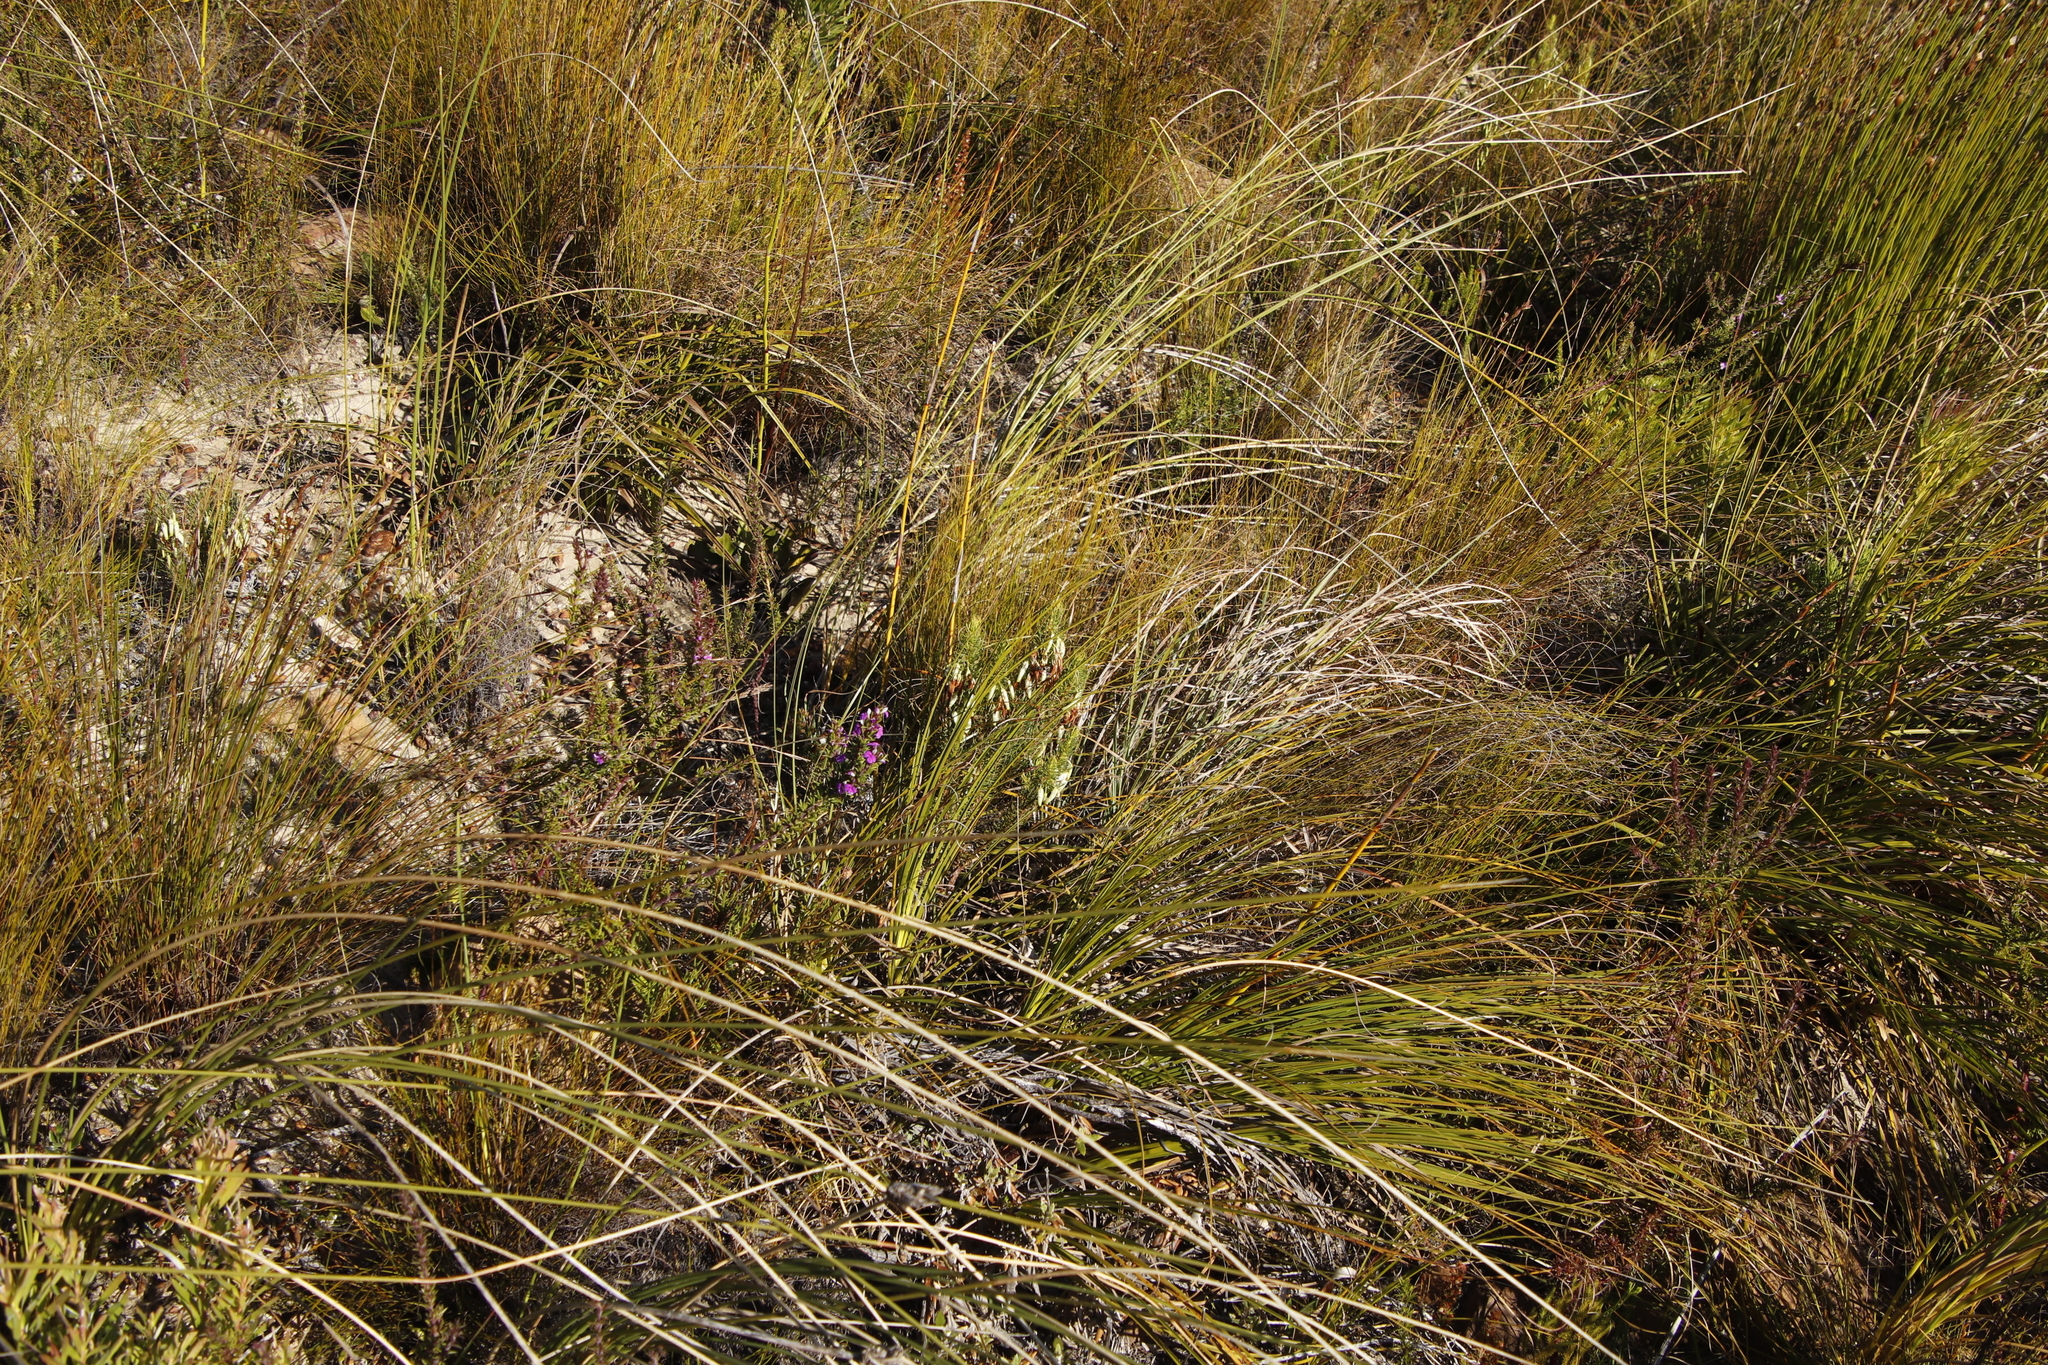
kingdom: Plantae
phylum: Tracheophyta
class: Magnoliopsida
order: Ericales
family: Ericaceae
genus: Erica
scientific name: Erica plukenetii
